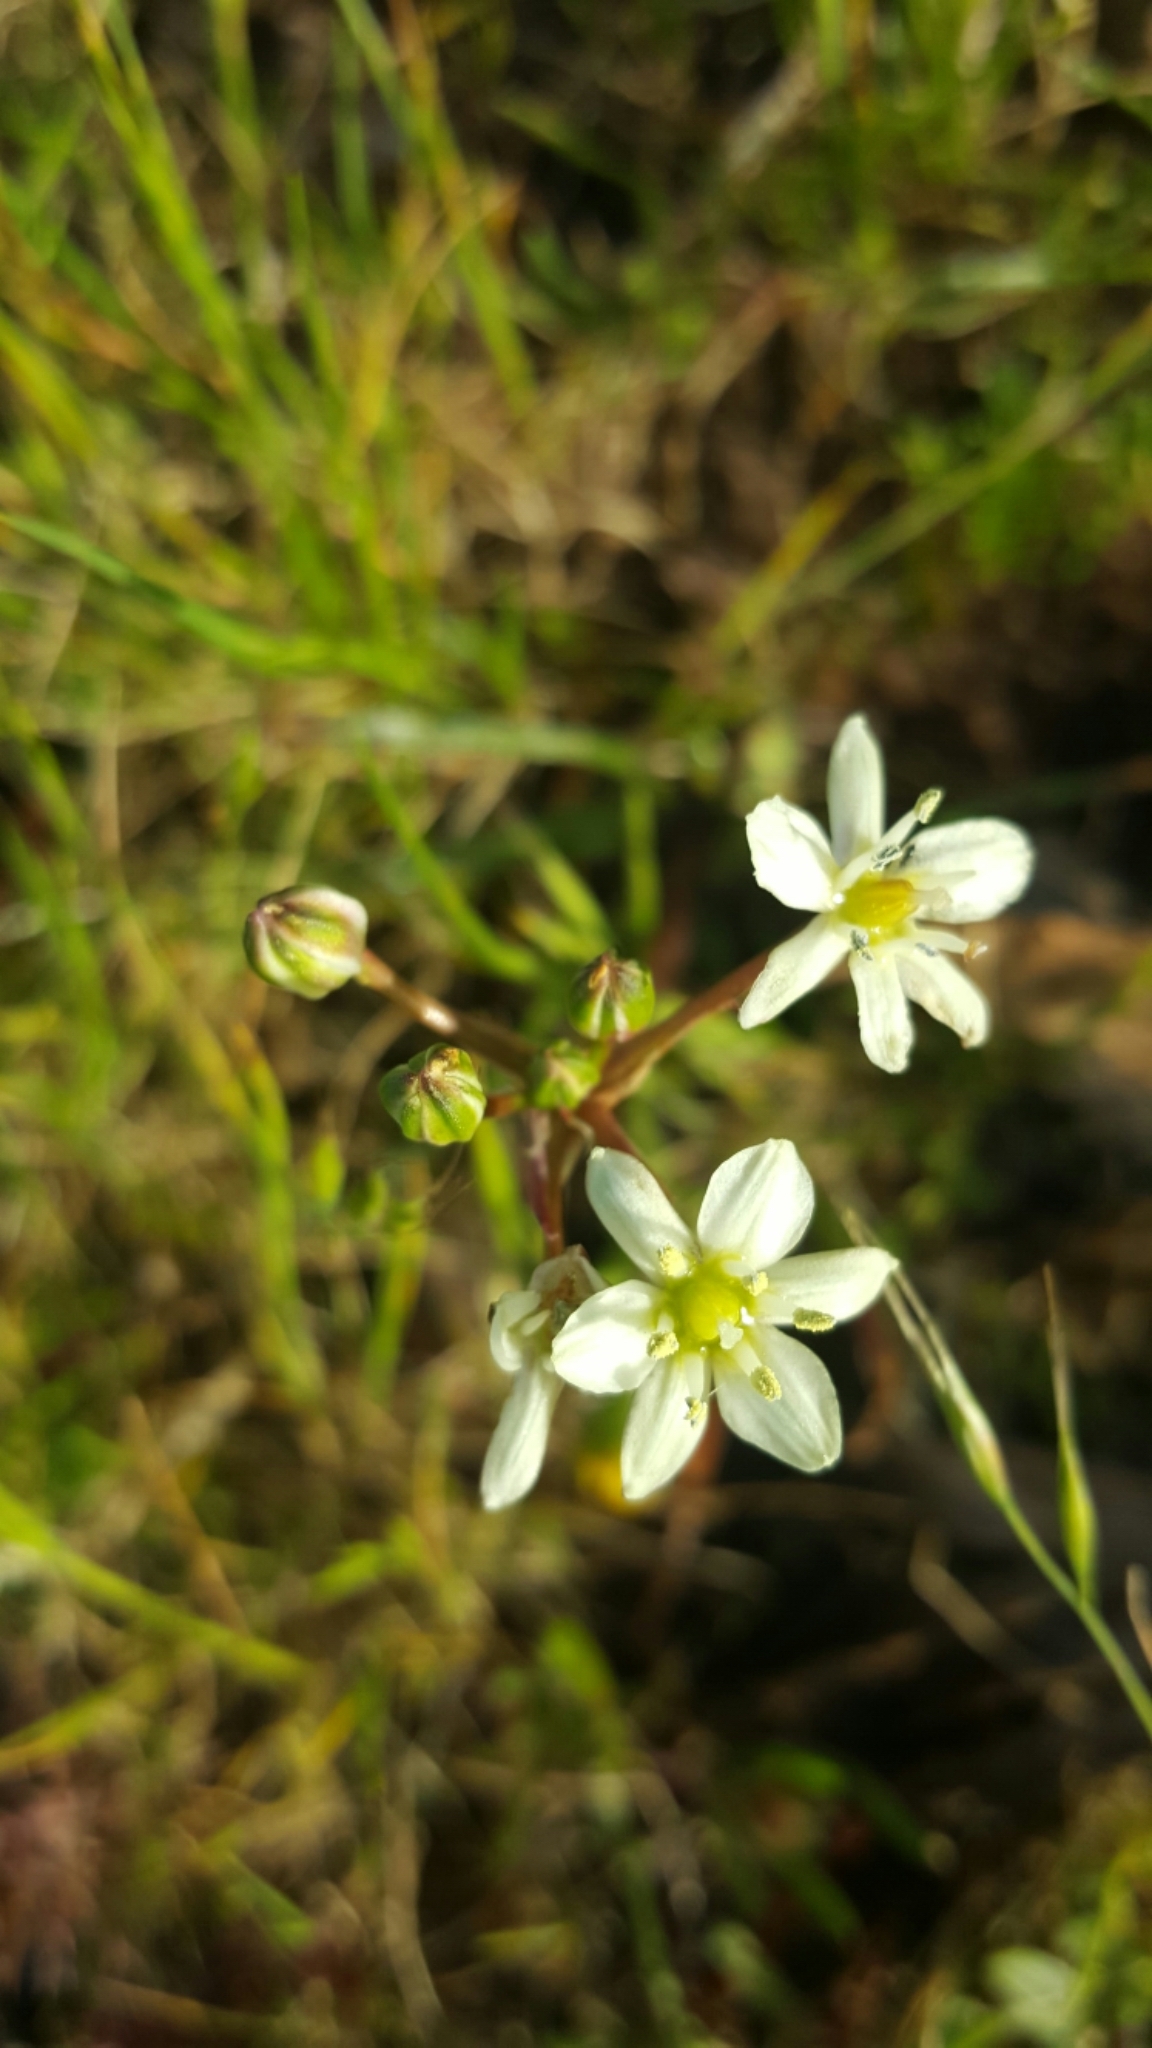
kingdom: Plantae
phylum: Tracheophyta
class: Liliopsida
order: Asparagales
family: Asparagaceae
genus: Muilla
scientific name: Muilla maritima
